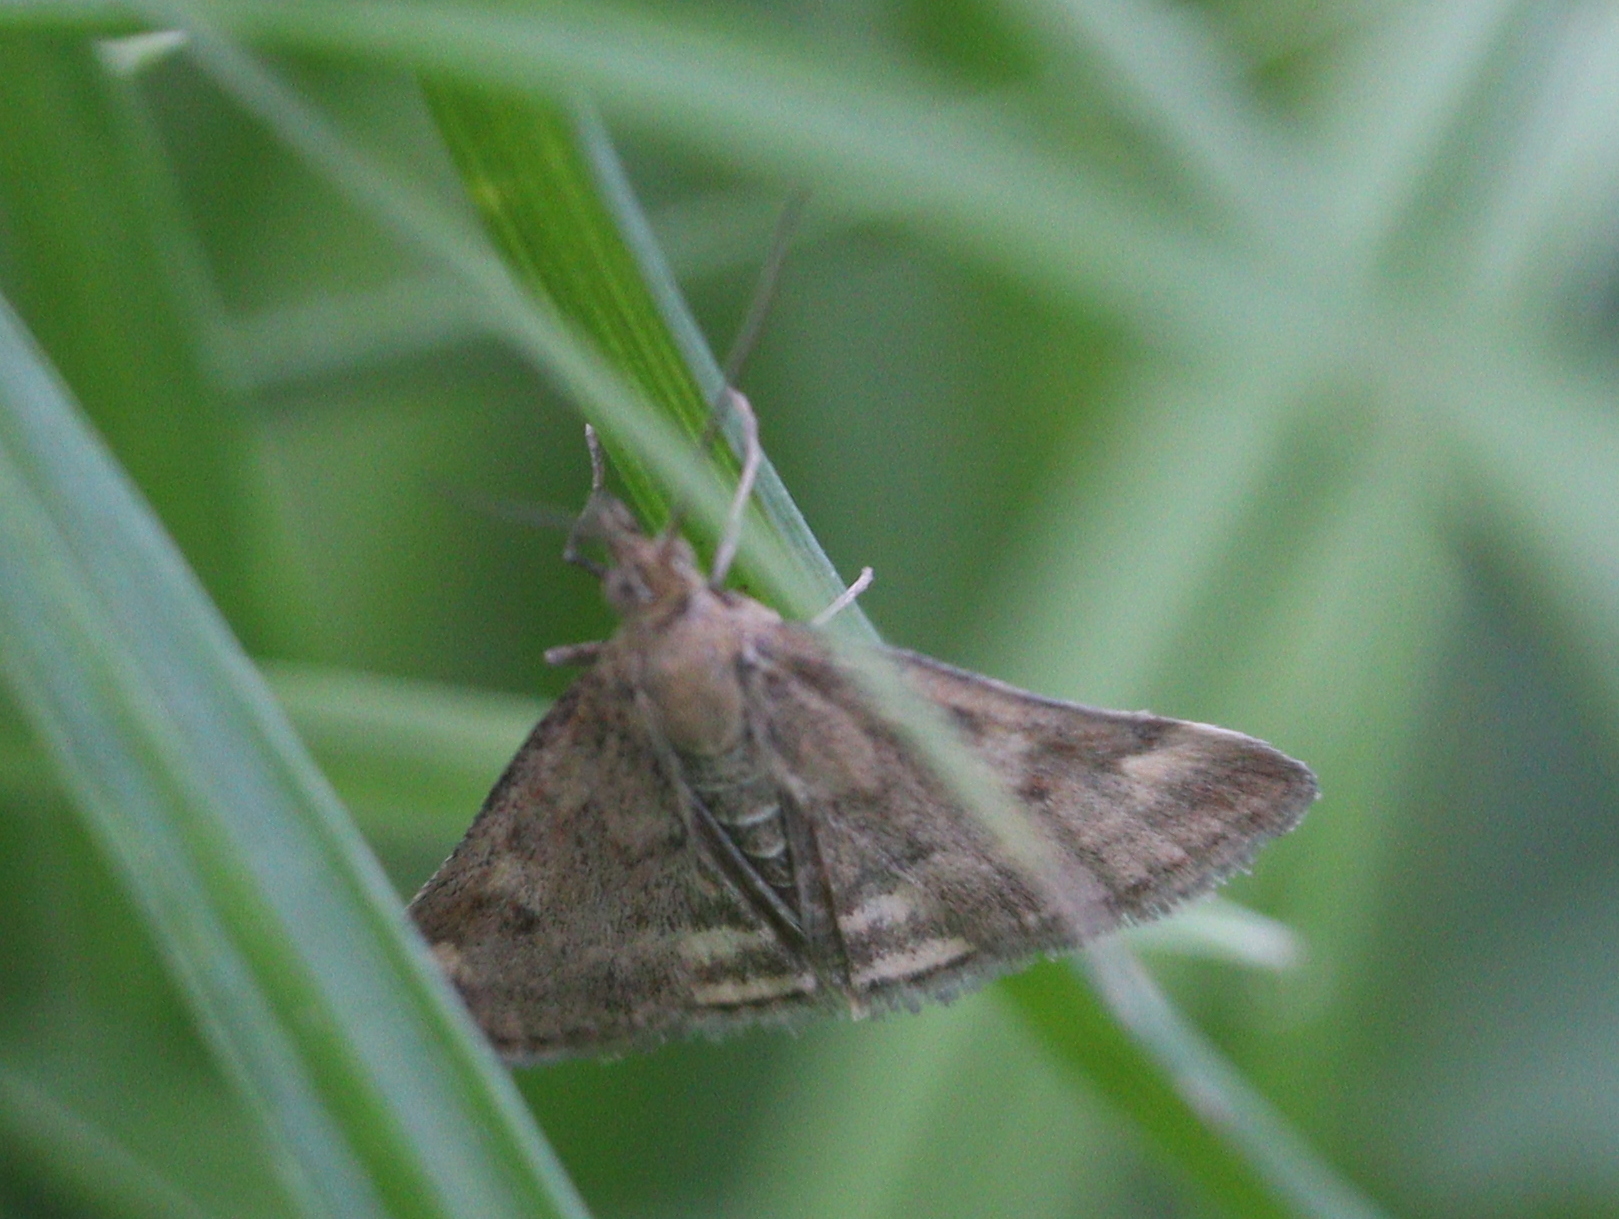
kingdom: Animalia
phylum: Arthropoda
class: Insecta
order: Lepidoptera
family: Crambidae
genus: Pyrausta
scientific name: Pyrausta despicata
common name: Straw-barred pearl
